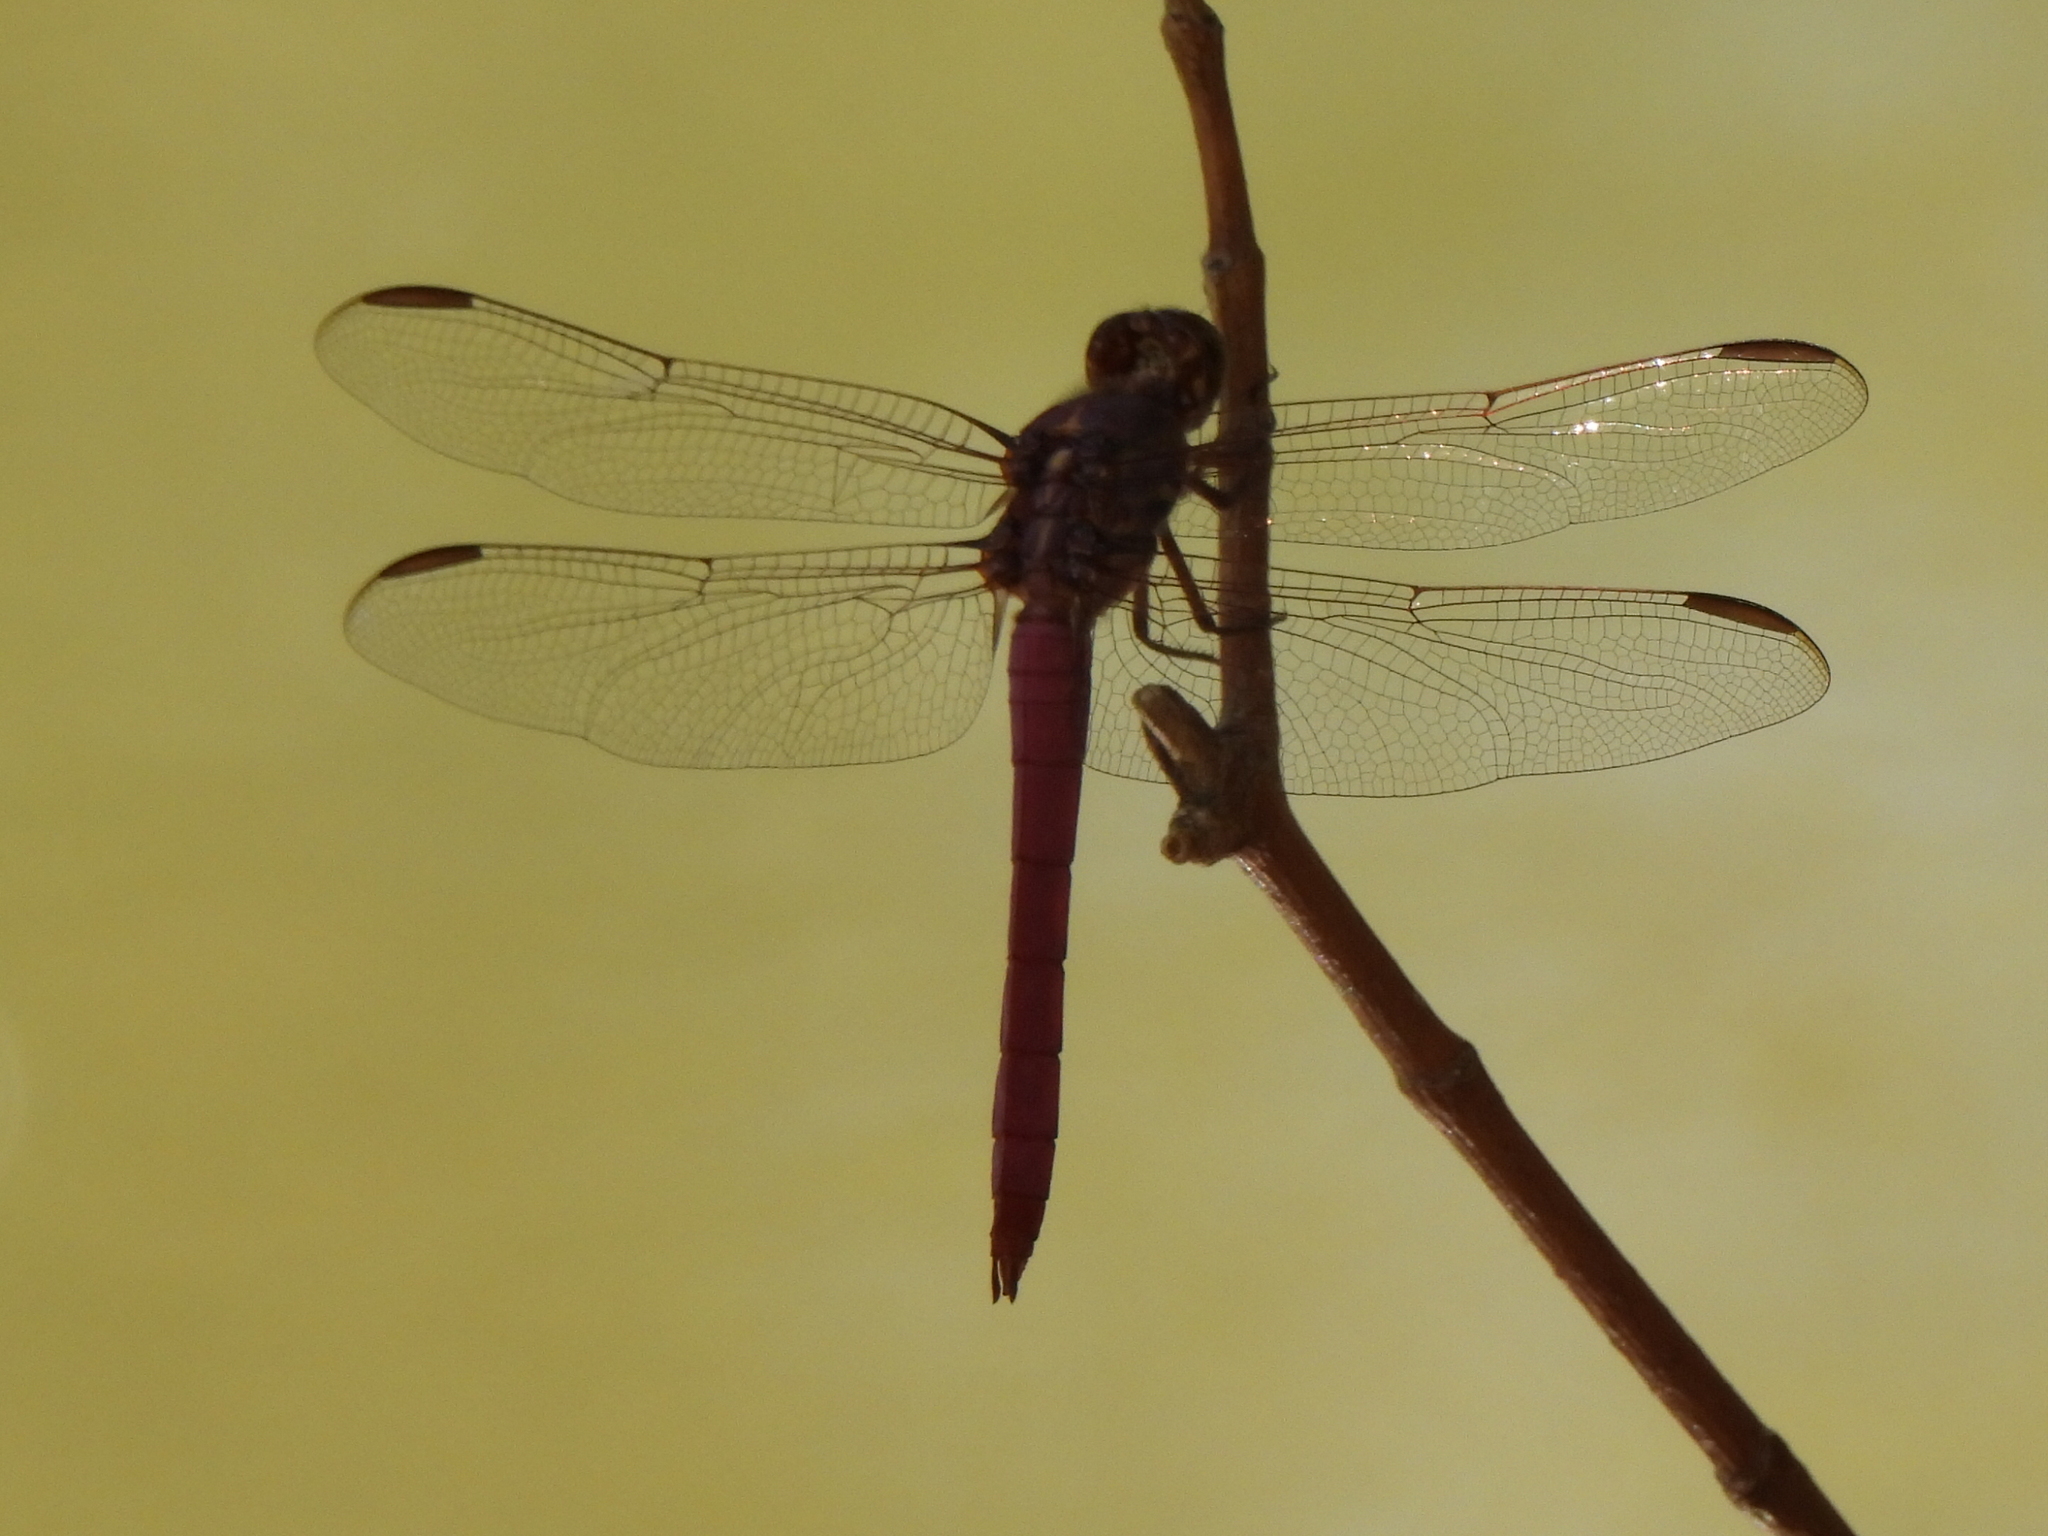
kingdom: Animalia
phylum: Arthropoda
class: Insecta
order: Odonata
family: Libellulidae
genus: Orthemis
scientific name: Orthemis ferruginea
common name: Roseate skimmer
